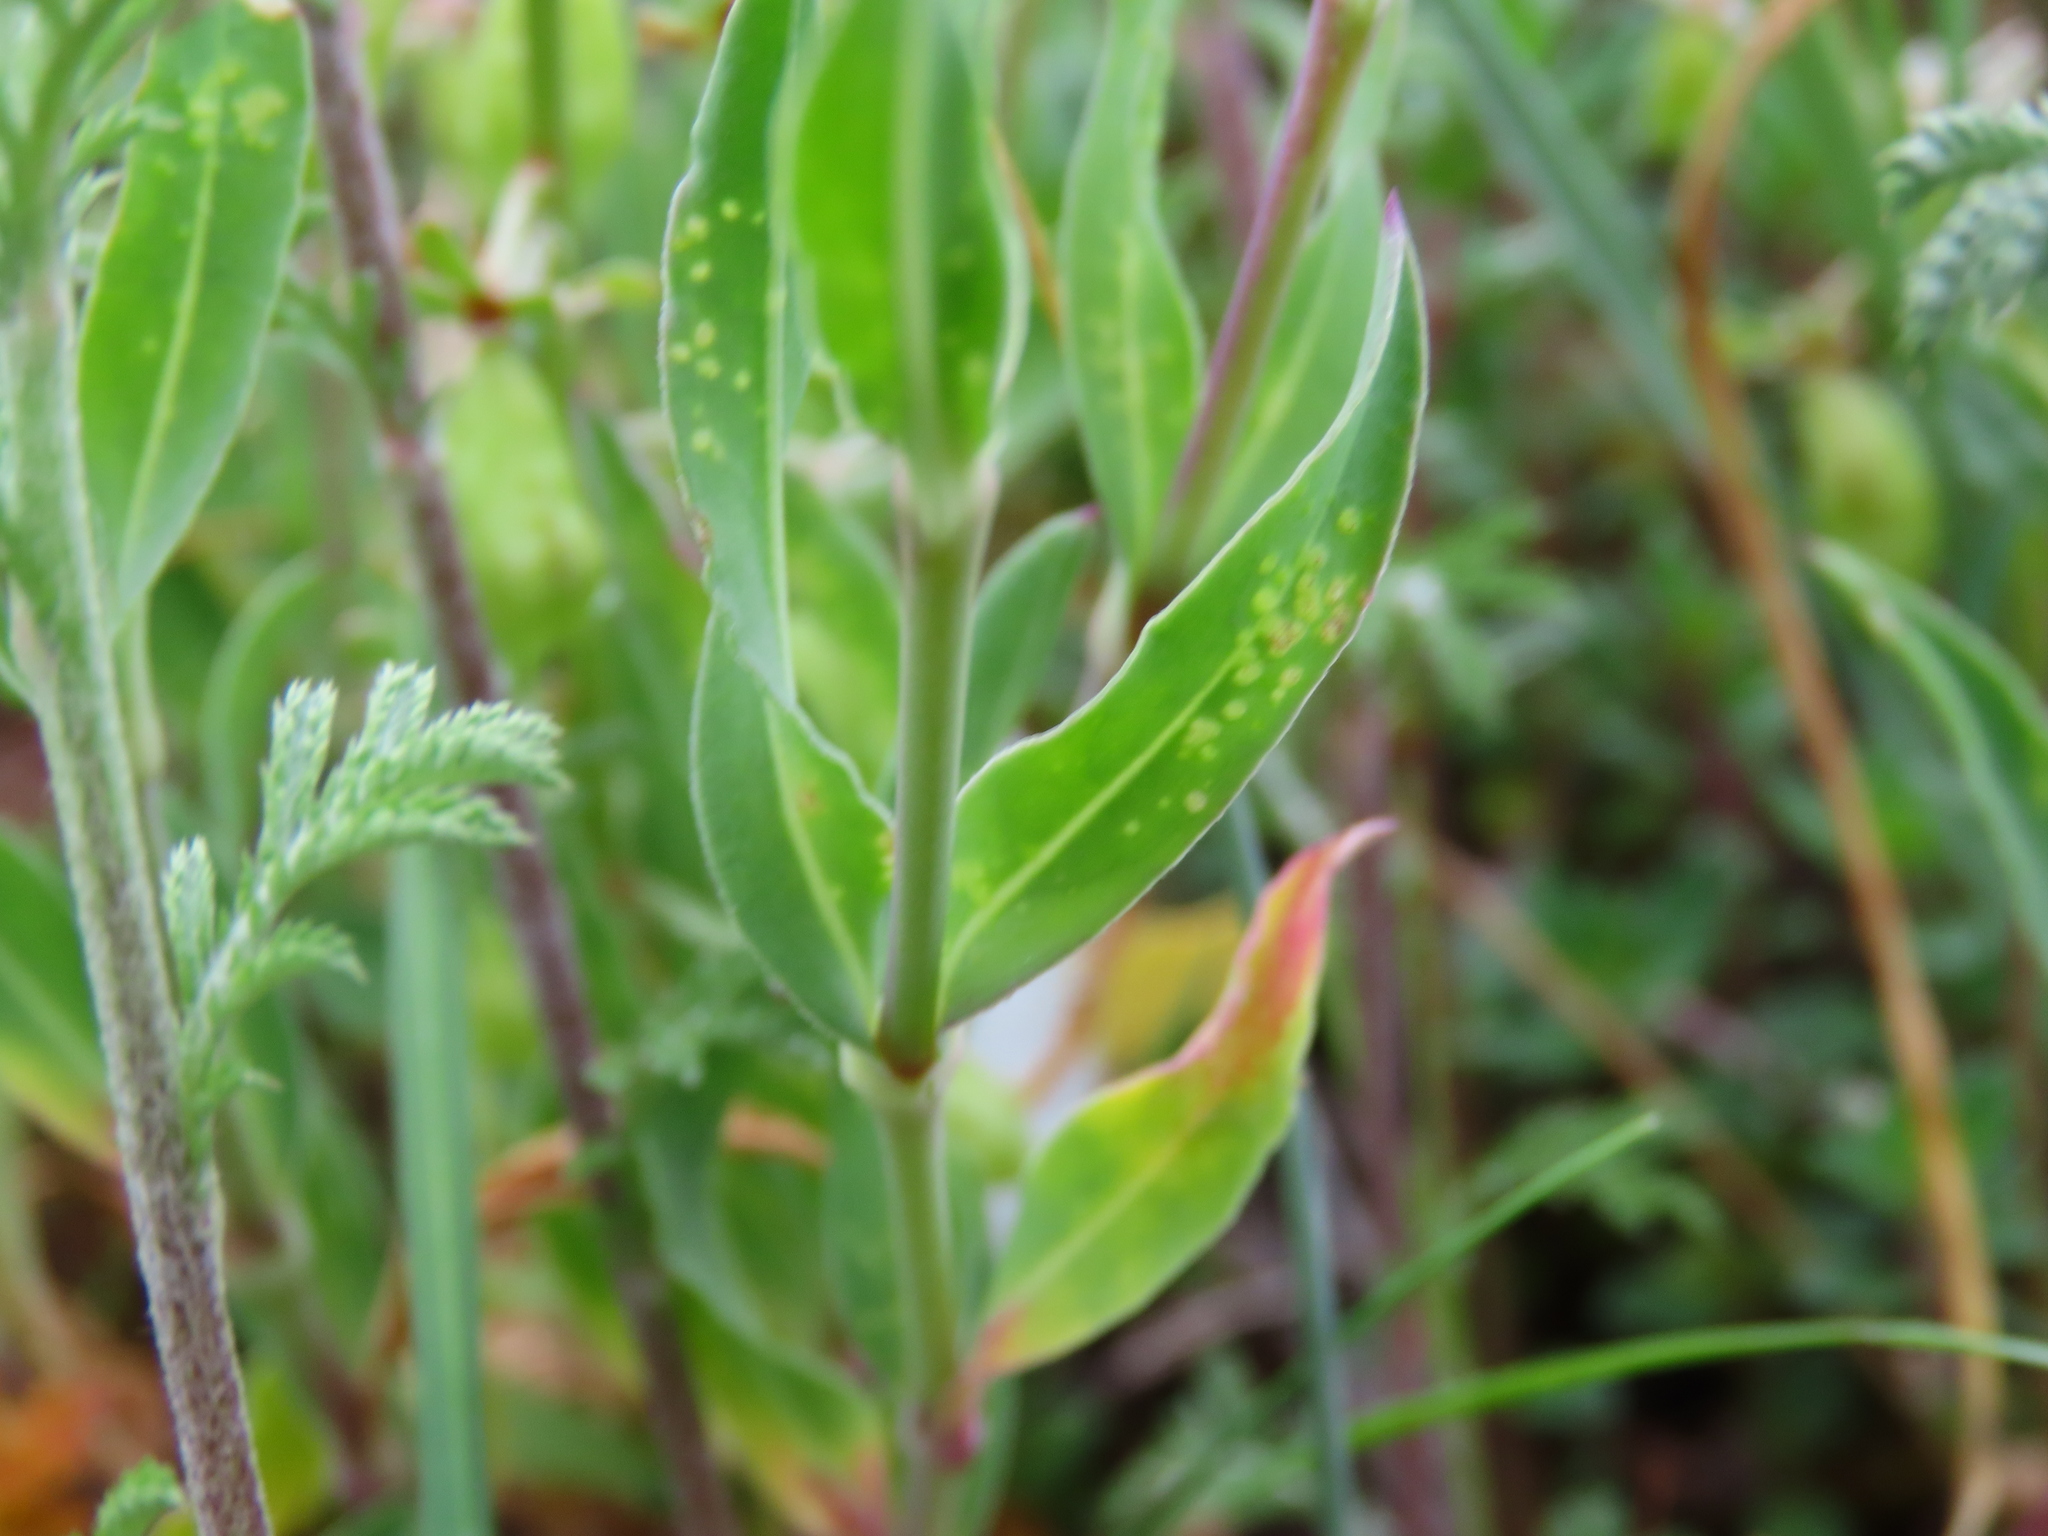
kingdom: Plantae
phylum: Tracheophyta
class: Magnoliopsida
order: Brassicales
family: Resedaceae
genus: Reseda
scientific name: Reseda phyteuma
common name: Corn mignonette
